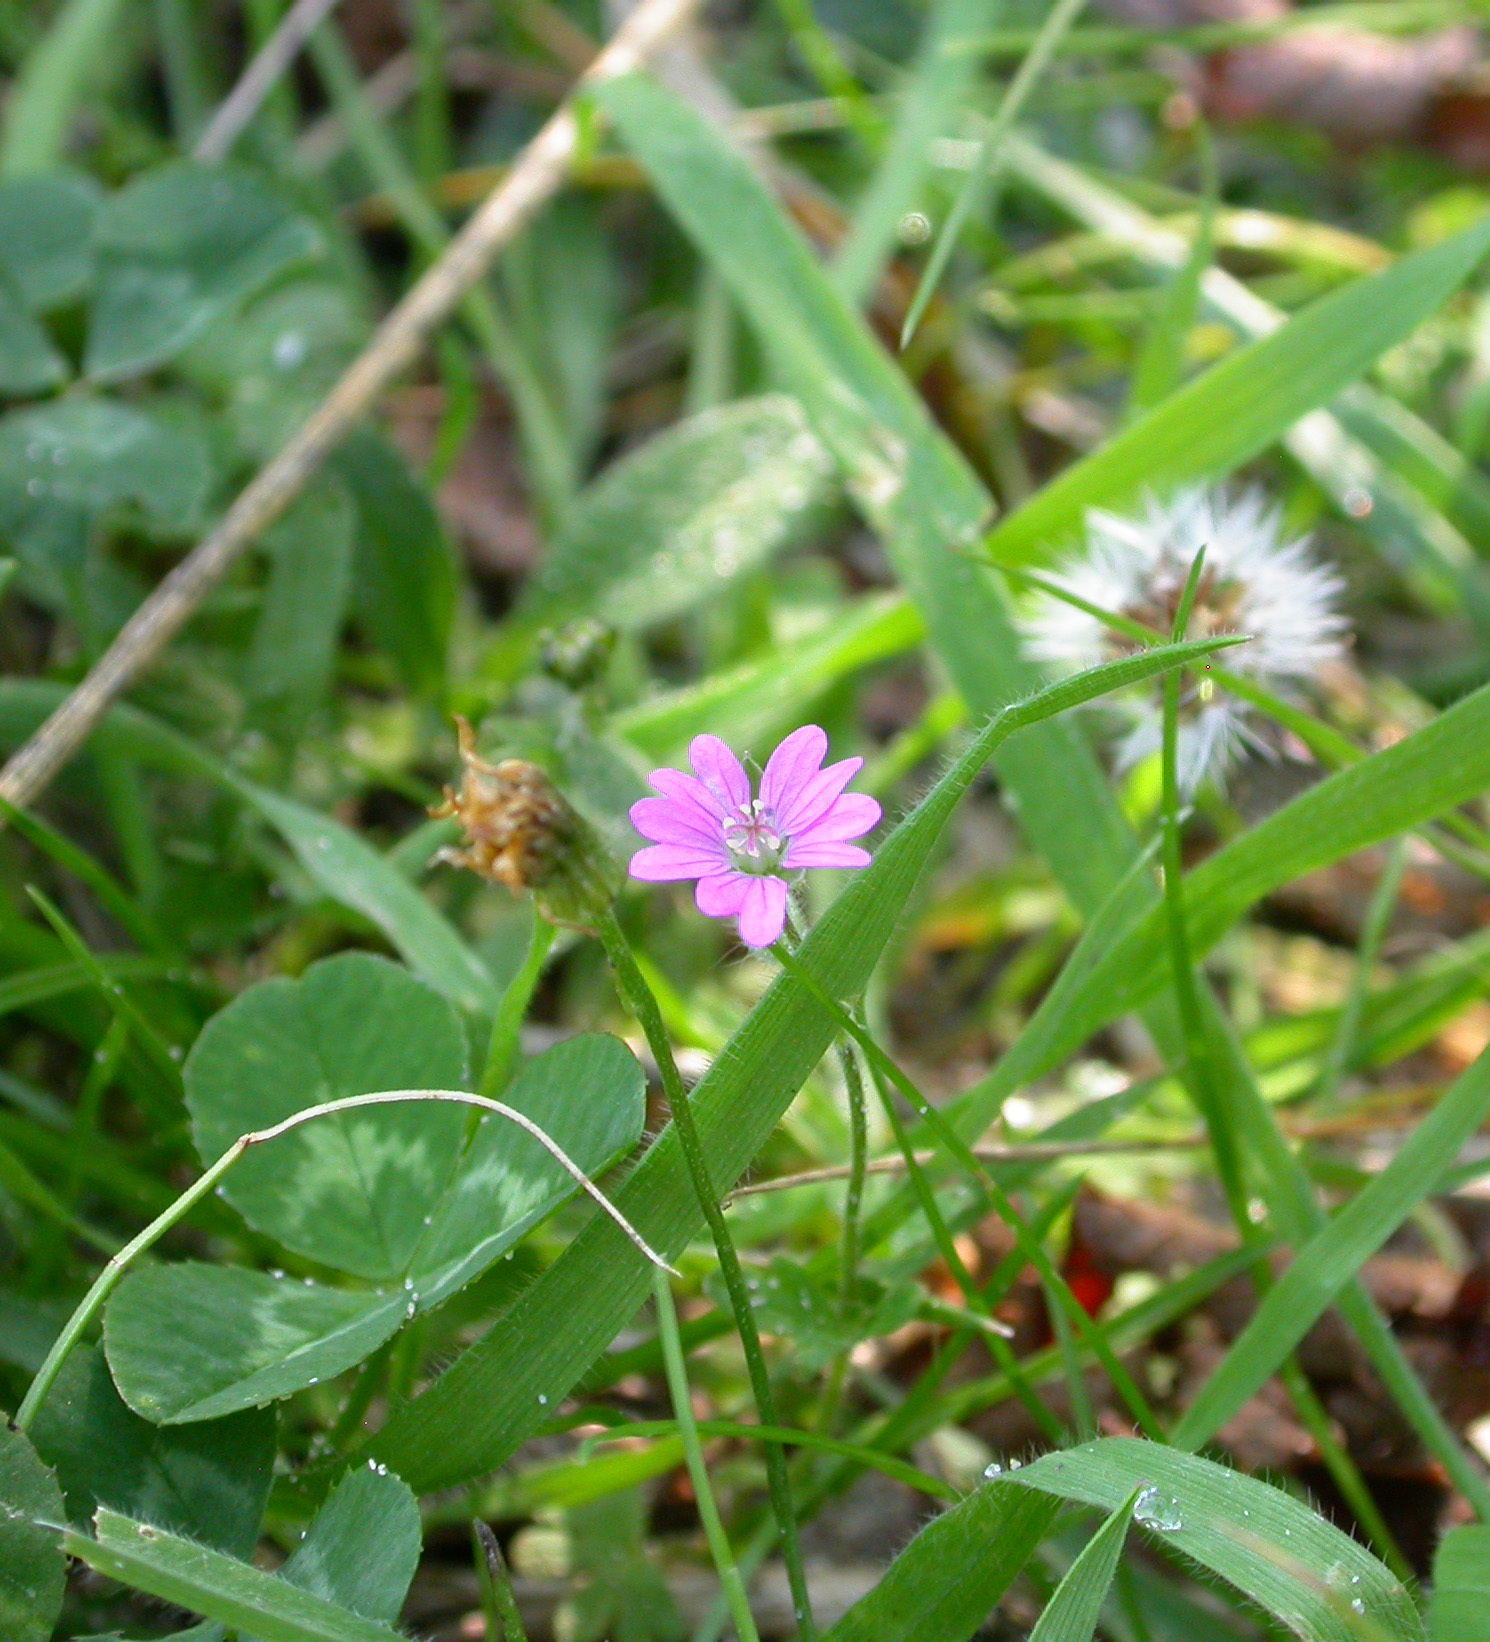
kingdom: Plantae
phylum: Tracheophyta
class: Magnoliopsida
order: Geraniales
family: Geraniaceae
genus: Geranium
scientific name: Geranium pyrenaicum
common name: Hedgerow crane's-bill
